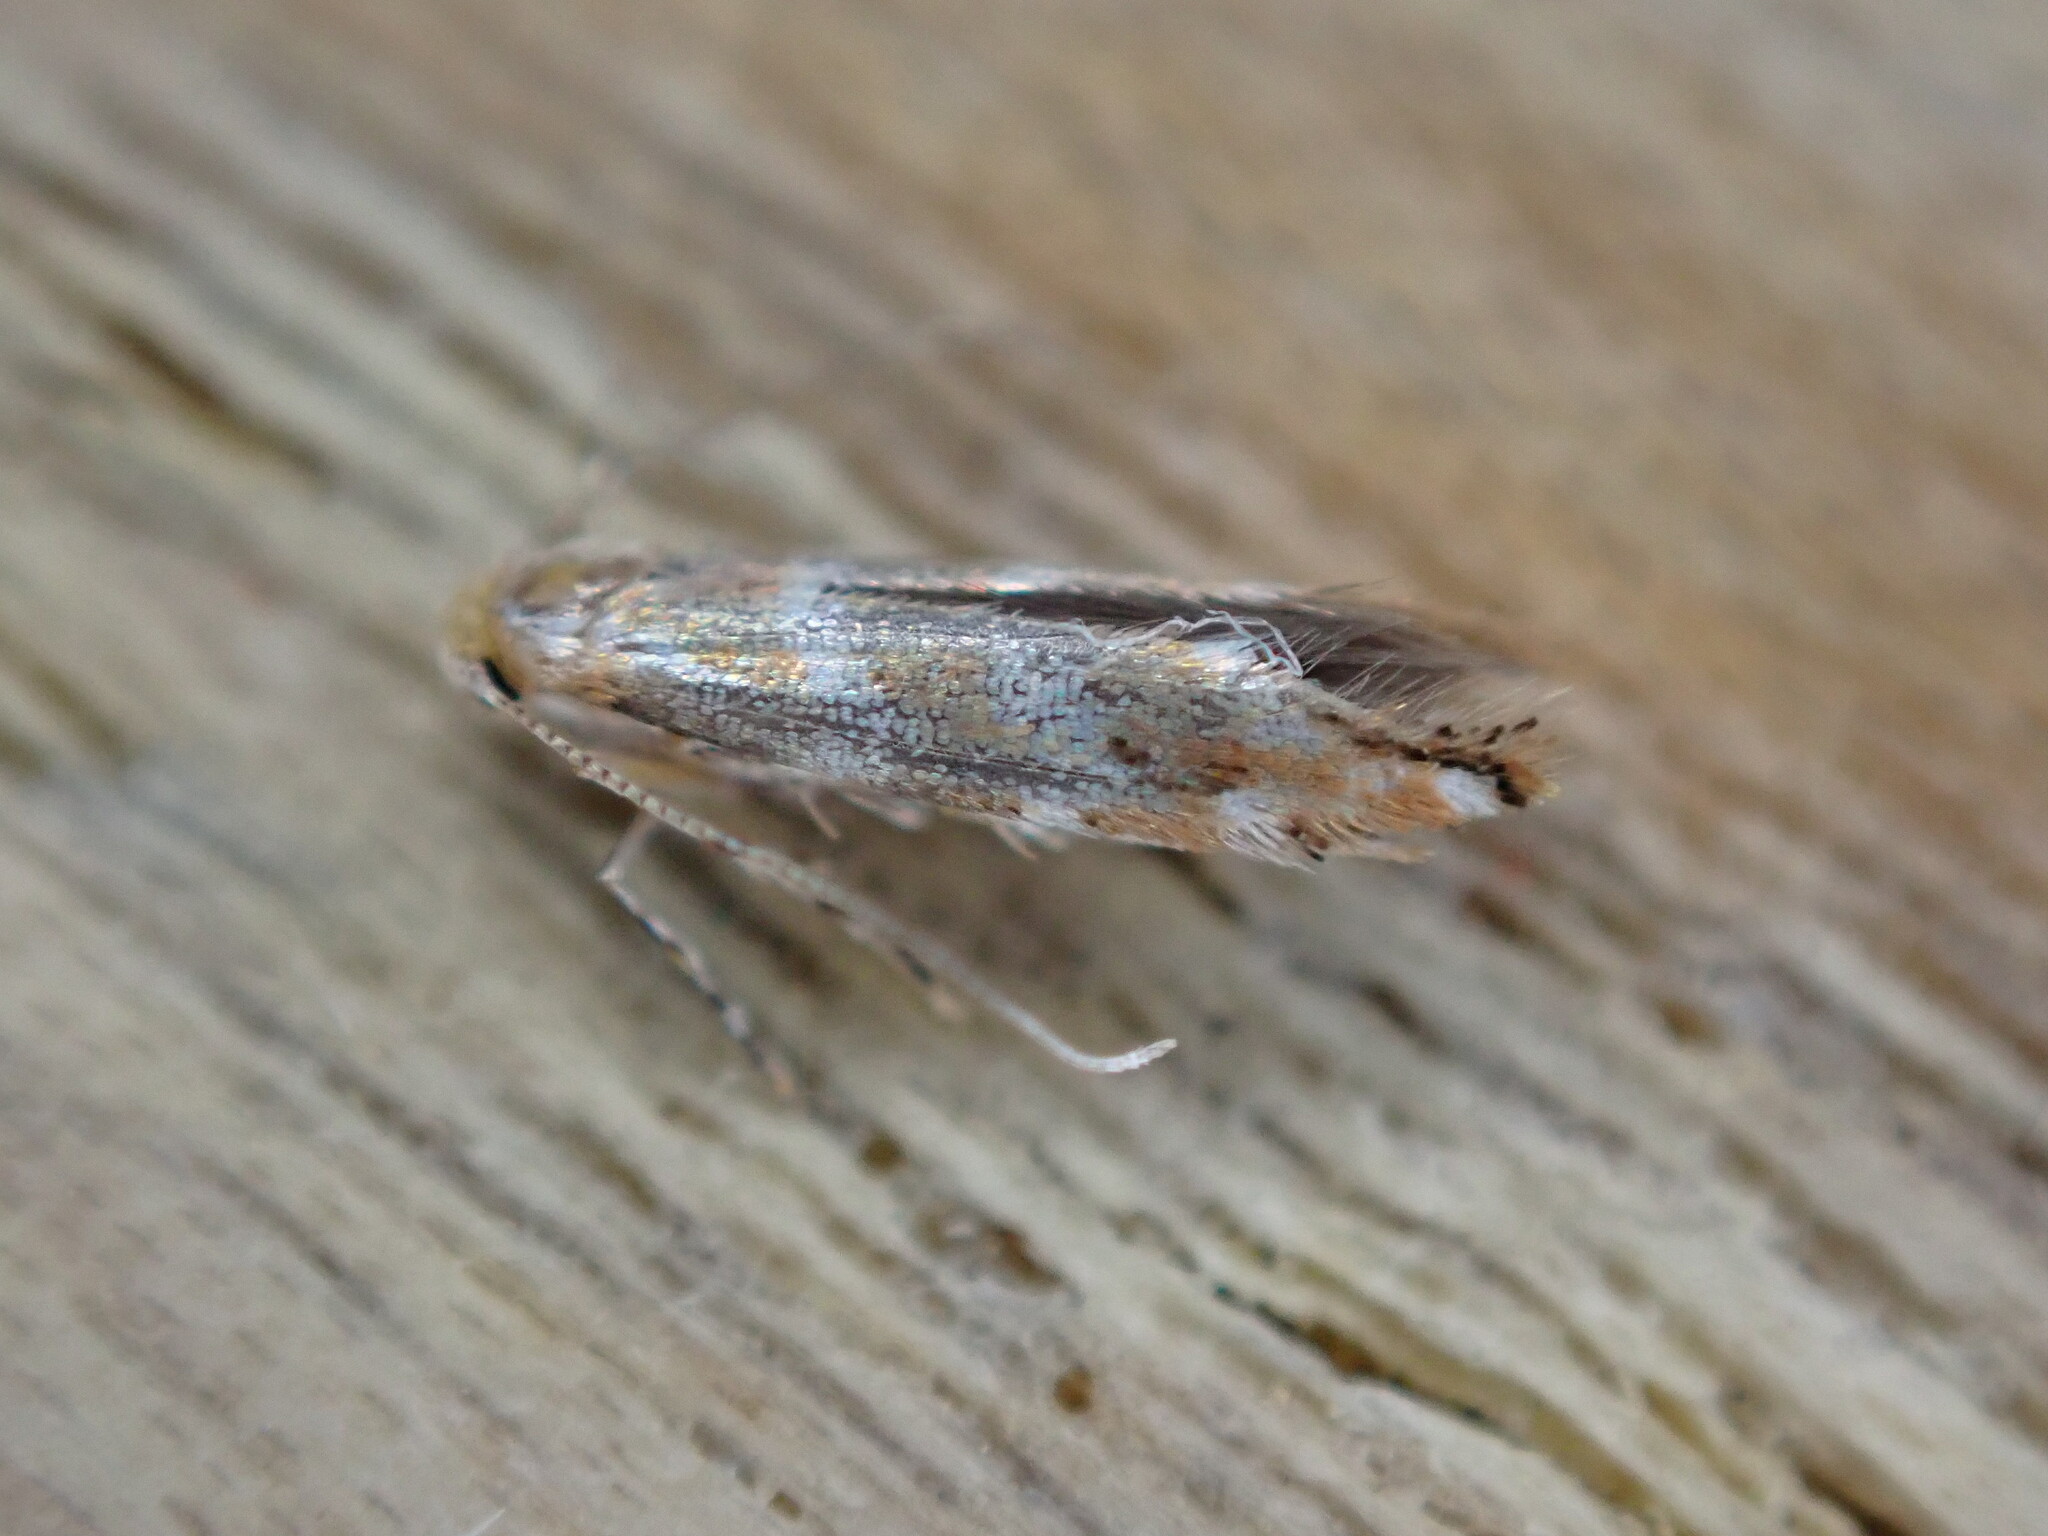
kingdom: Animalia
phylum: Arthropoda
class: Insecta
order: Lepidoptera
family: Gracillariidae
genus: Cameraria
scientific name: Cameraria ohridella
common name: Horse-chestnut leaf-miner
